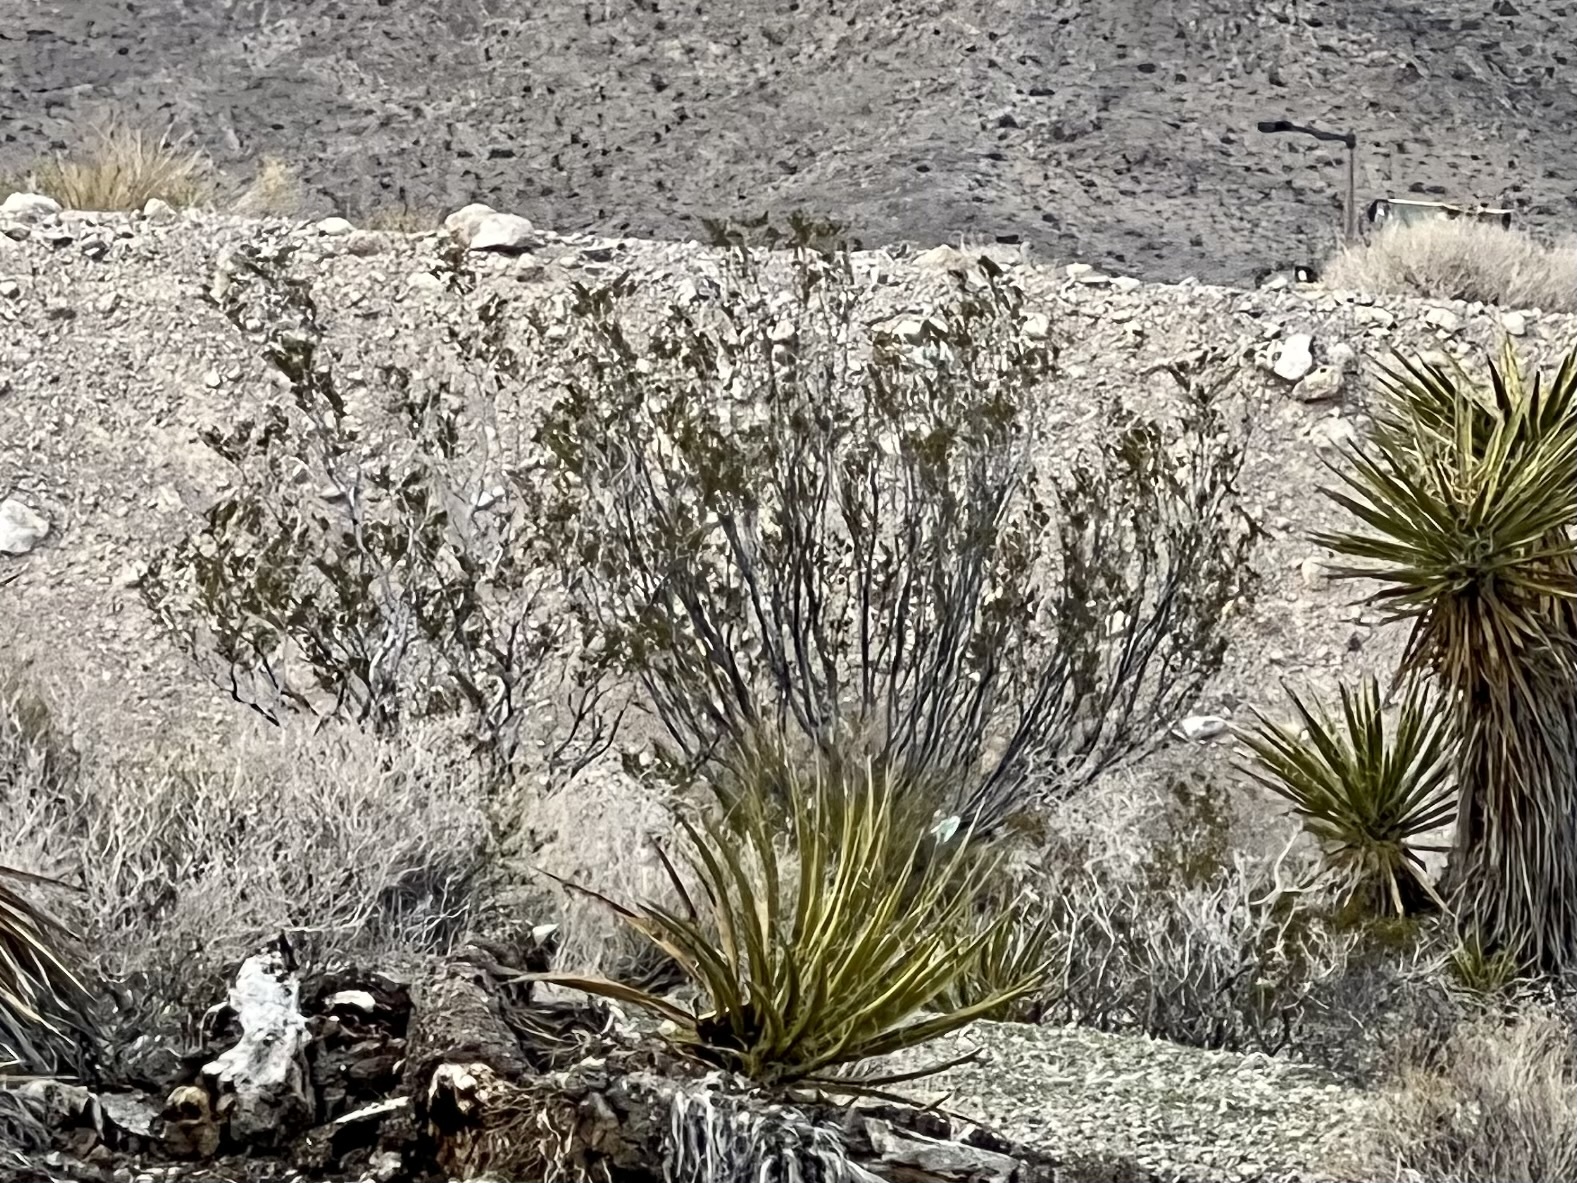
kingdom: Plantae
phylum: Tracheophyta
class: Magnoliopsida
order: Zygophyllales
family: Zygophyllaceae
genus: Larrea
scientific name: Larrea tridentata
